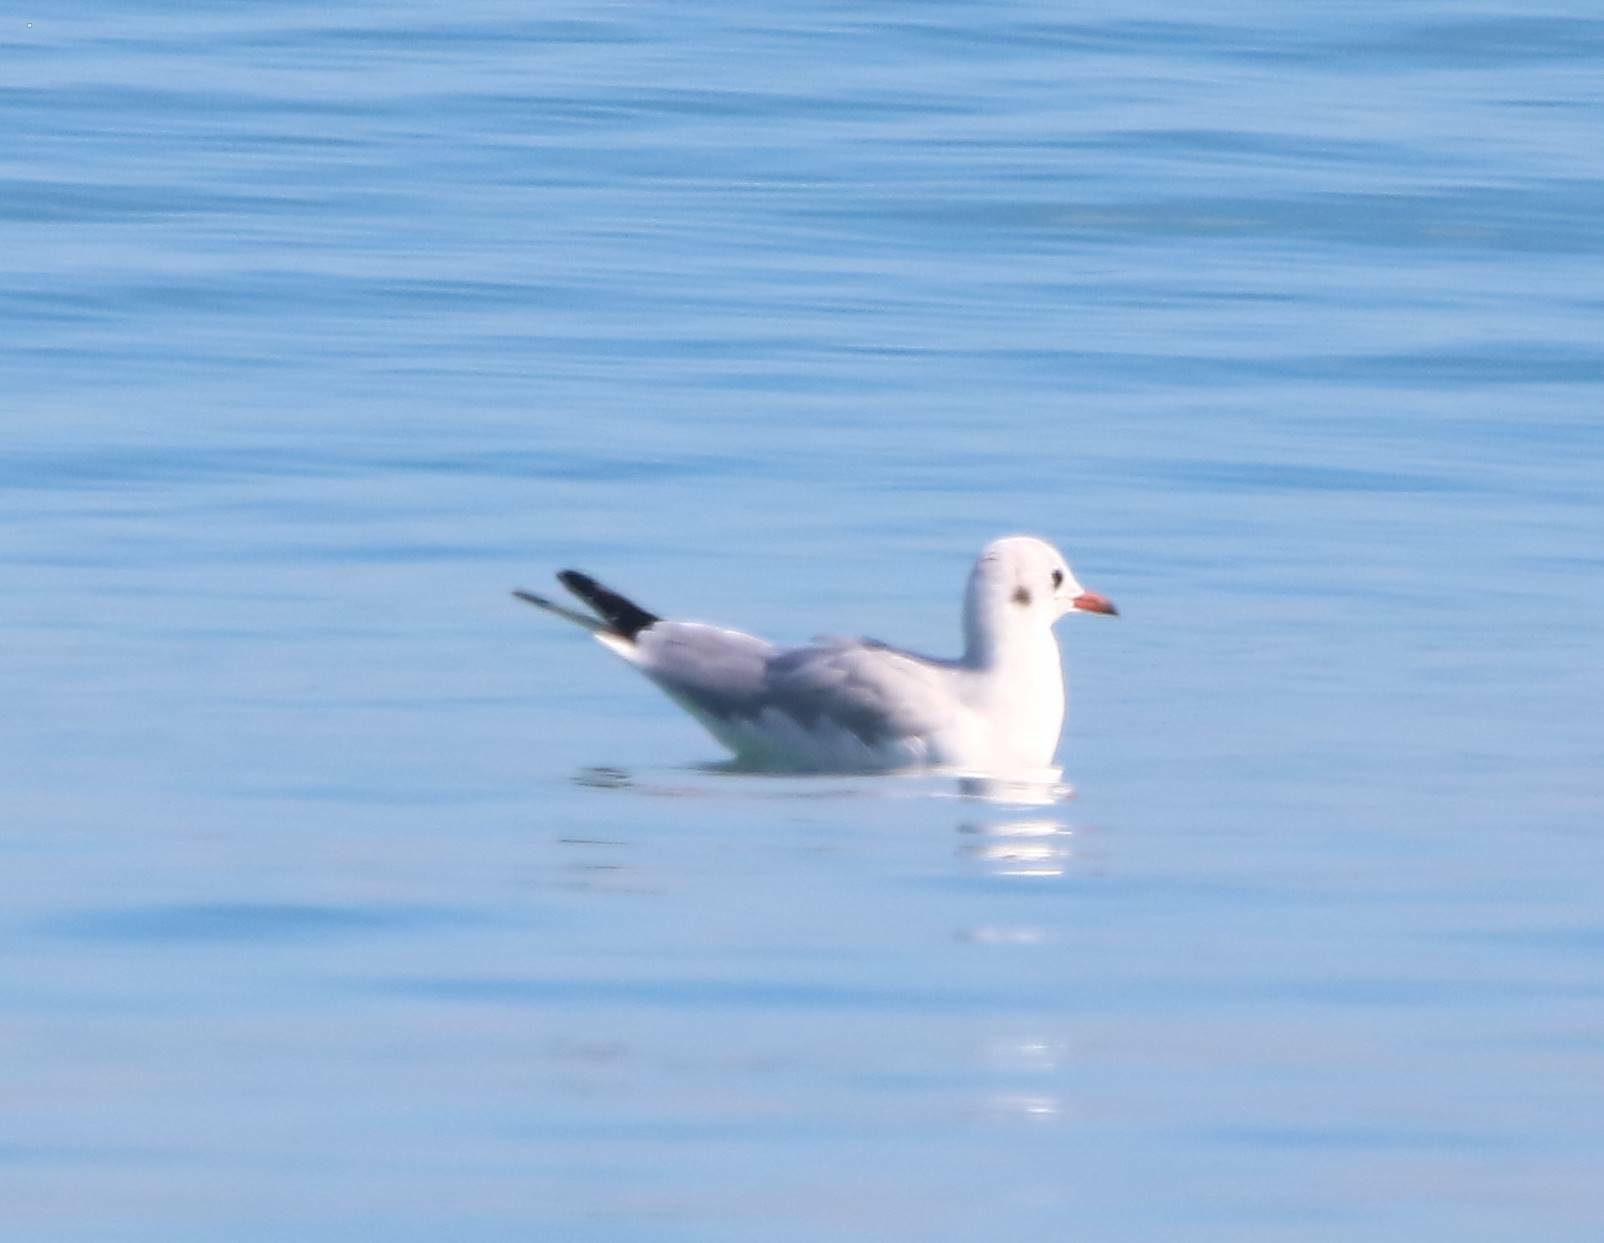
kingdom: Animalia
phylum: Chordata
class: Aves
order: Charadriiformes
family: Laridae
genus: Chroicocephalus
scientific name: Chroicocephalus ridibundus
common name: Black-headed gull
